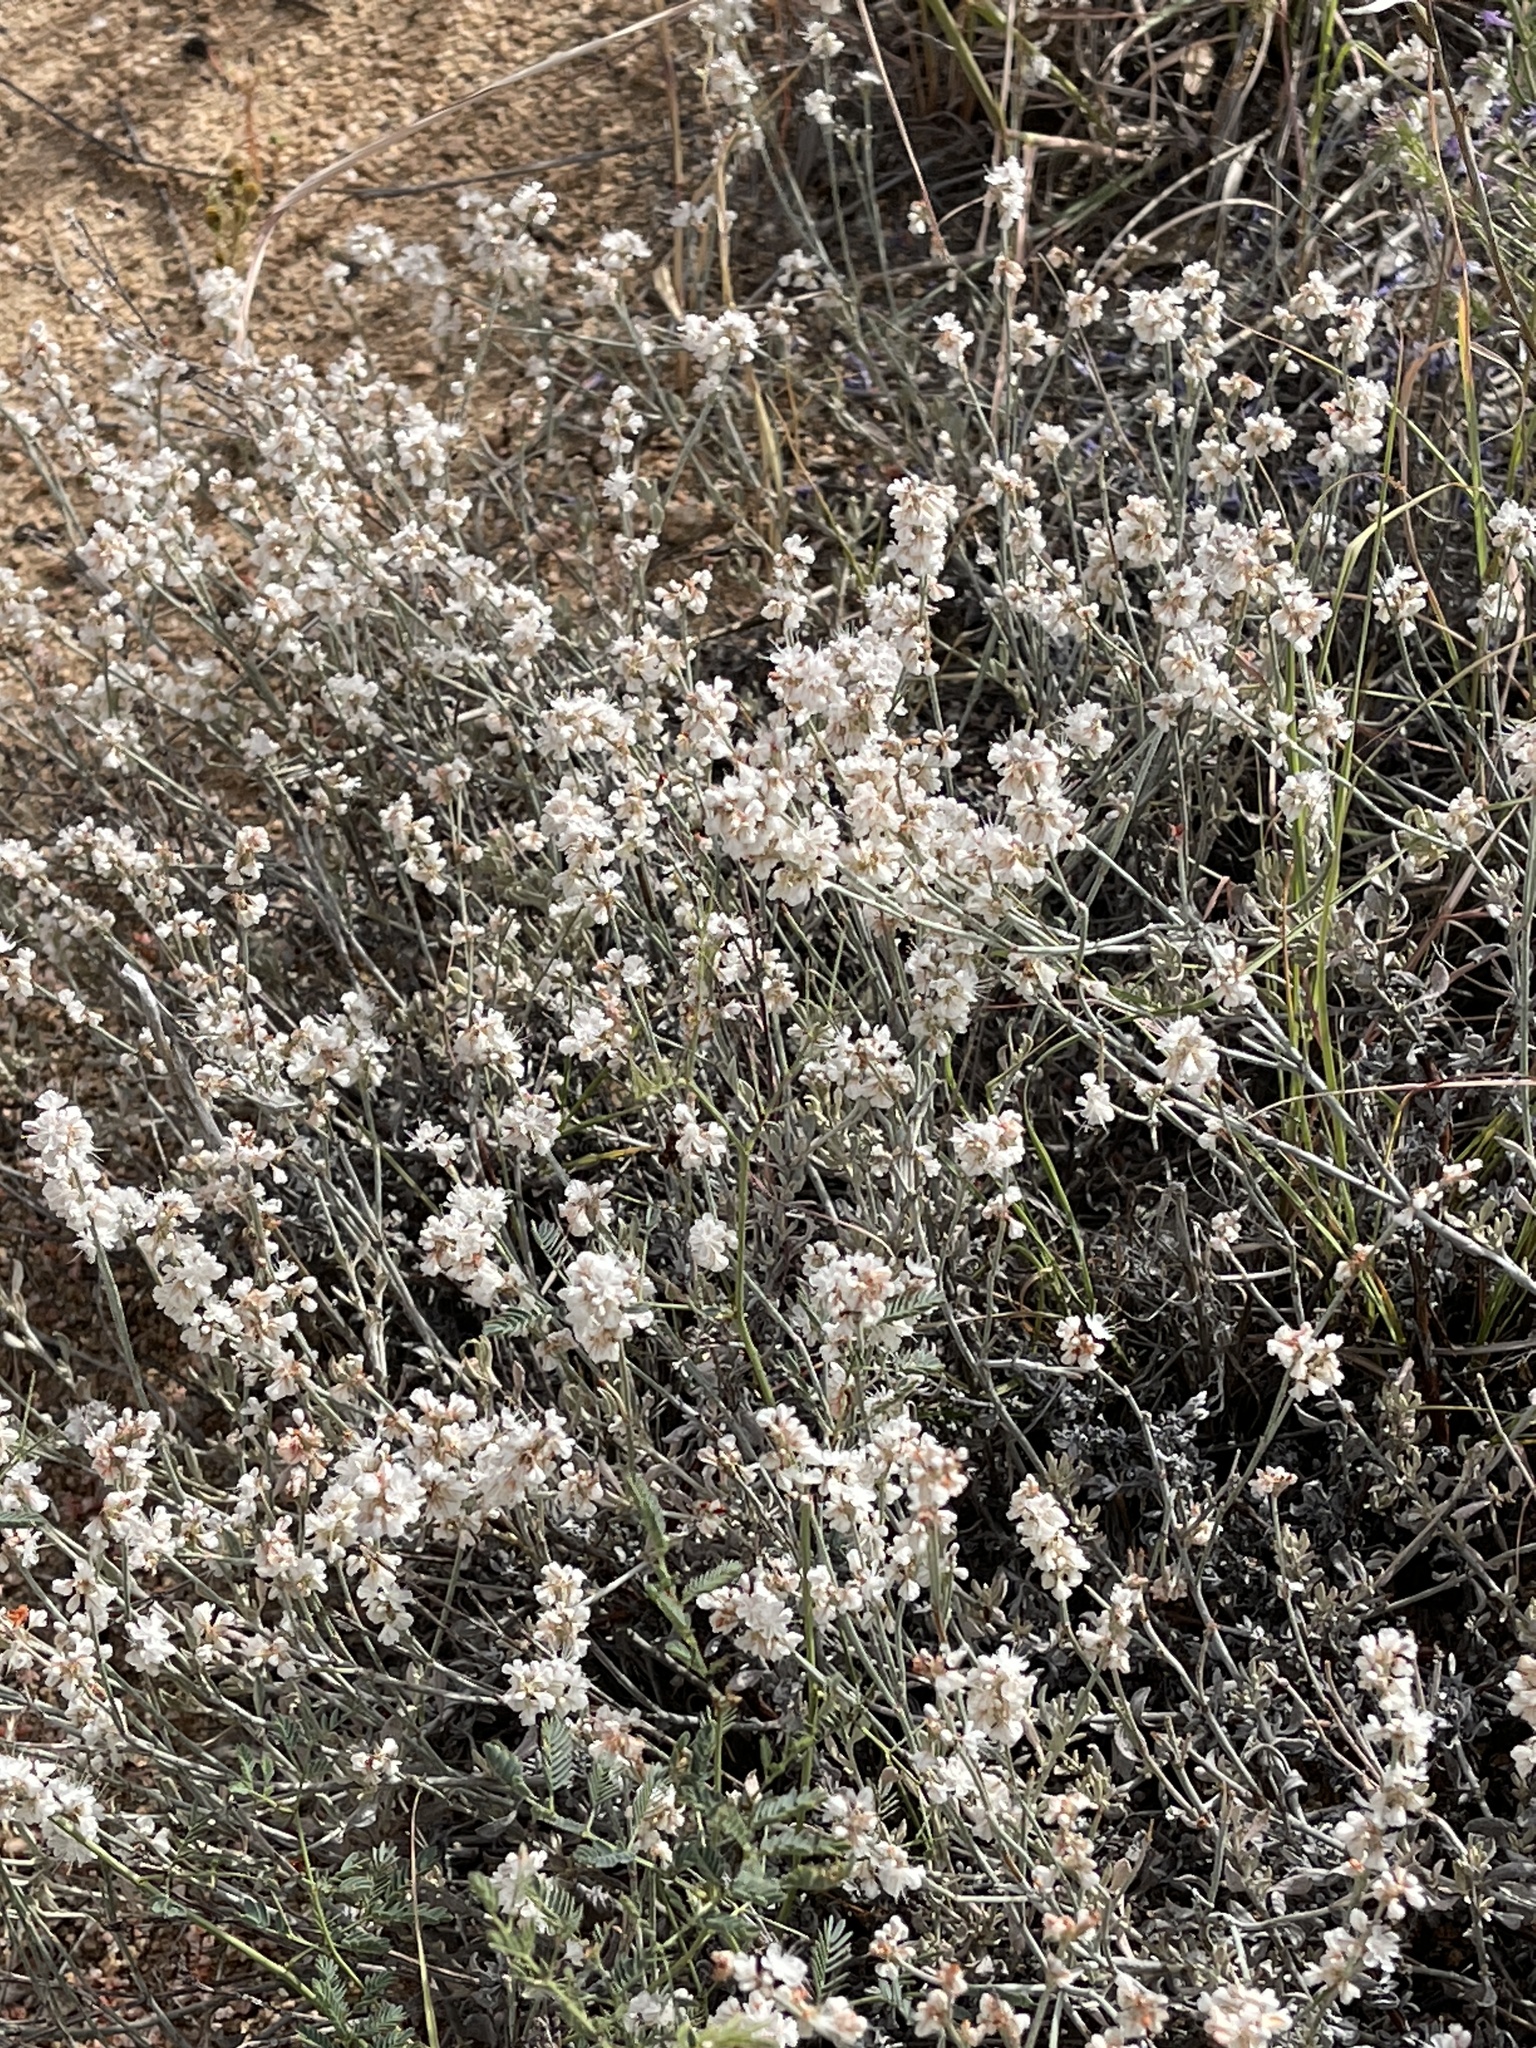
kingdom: Plantae
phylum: Tracheophyta
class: Magnoliopsida
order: Caryophyllales
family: Polygonaceae
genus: Eriogonum
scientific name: Eriogonum wrightii
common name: Bastard-sage
